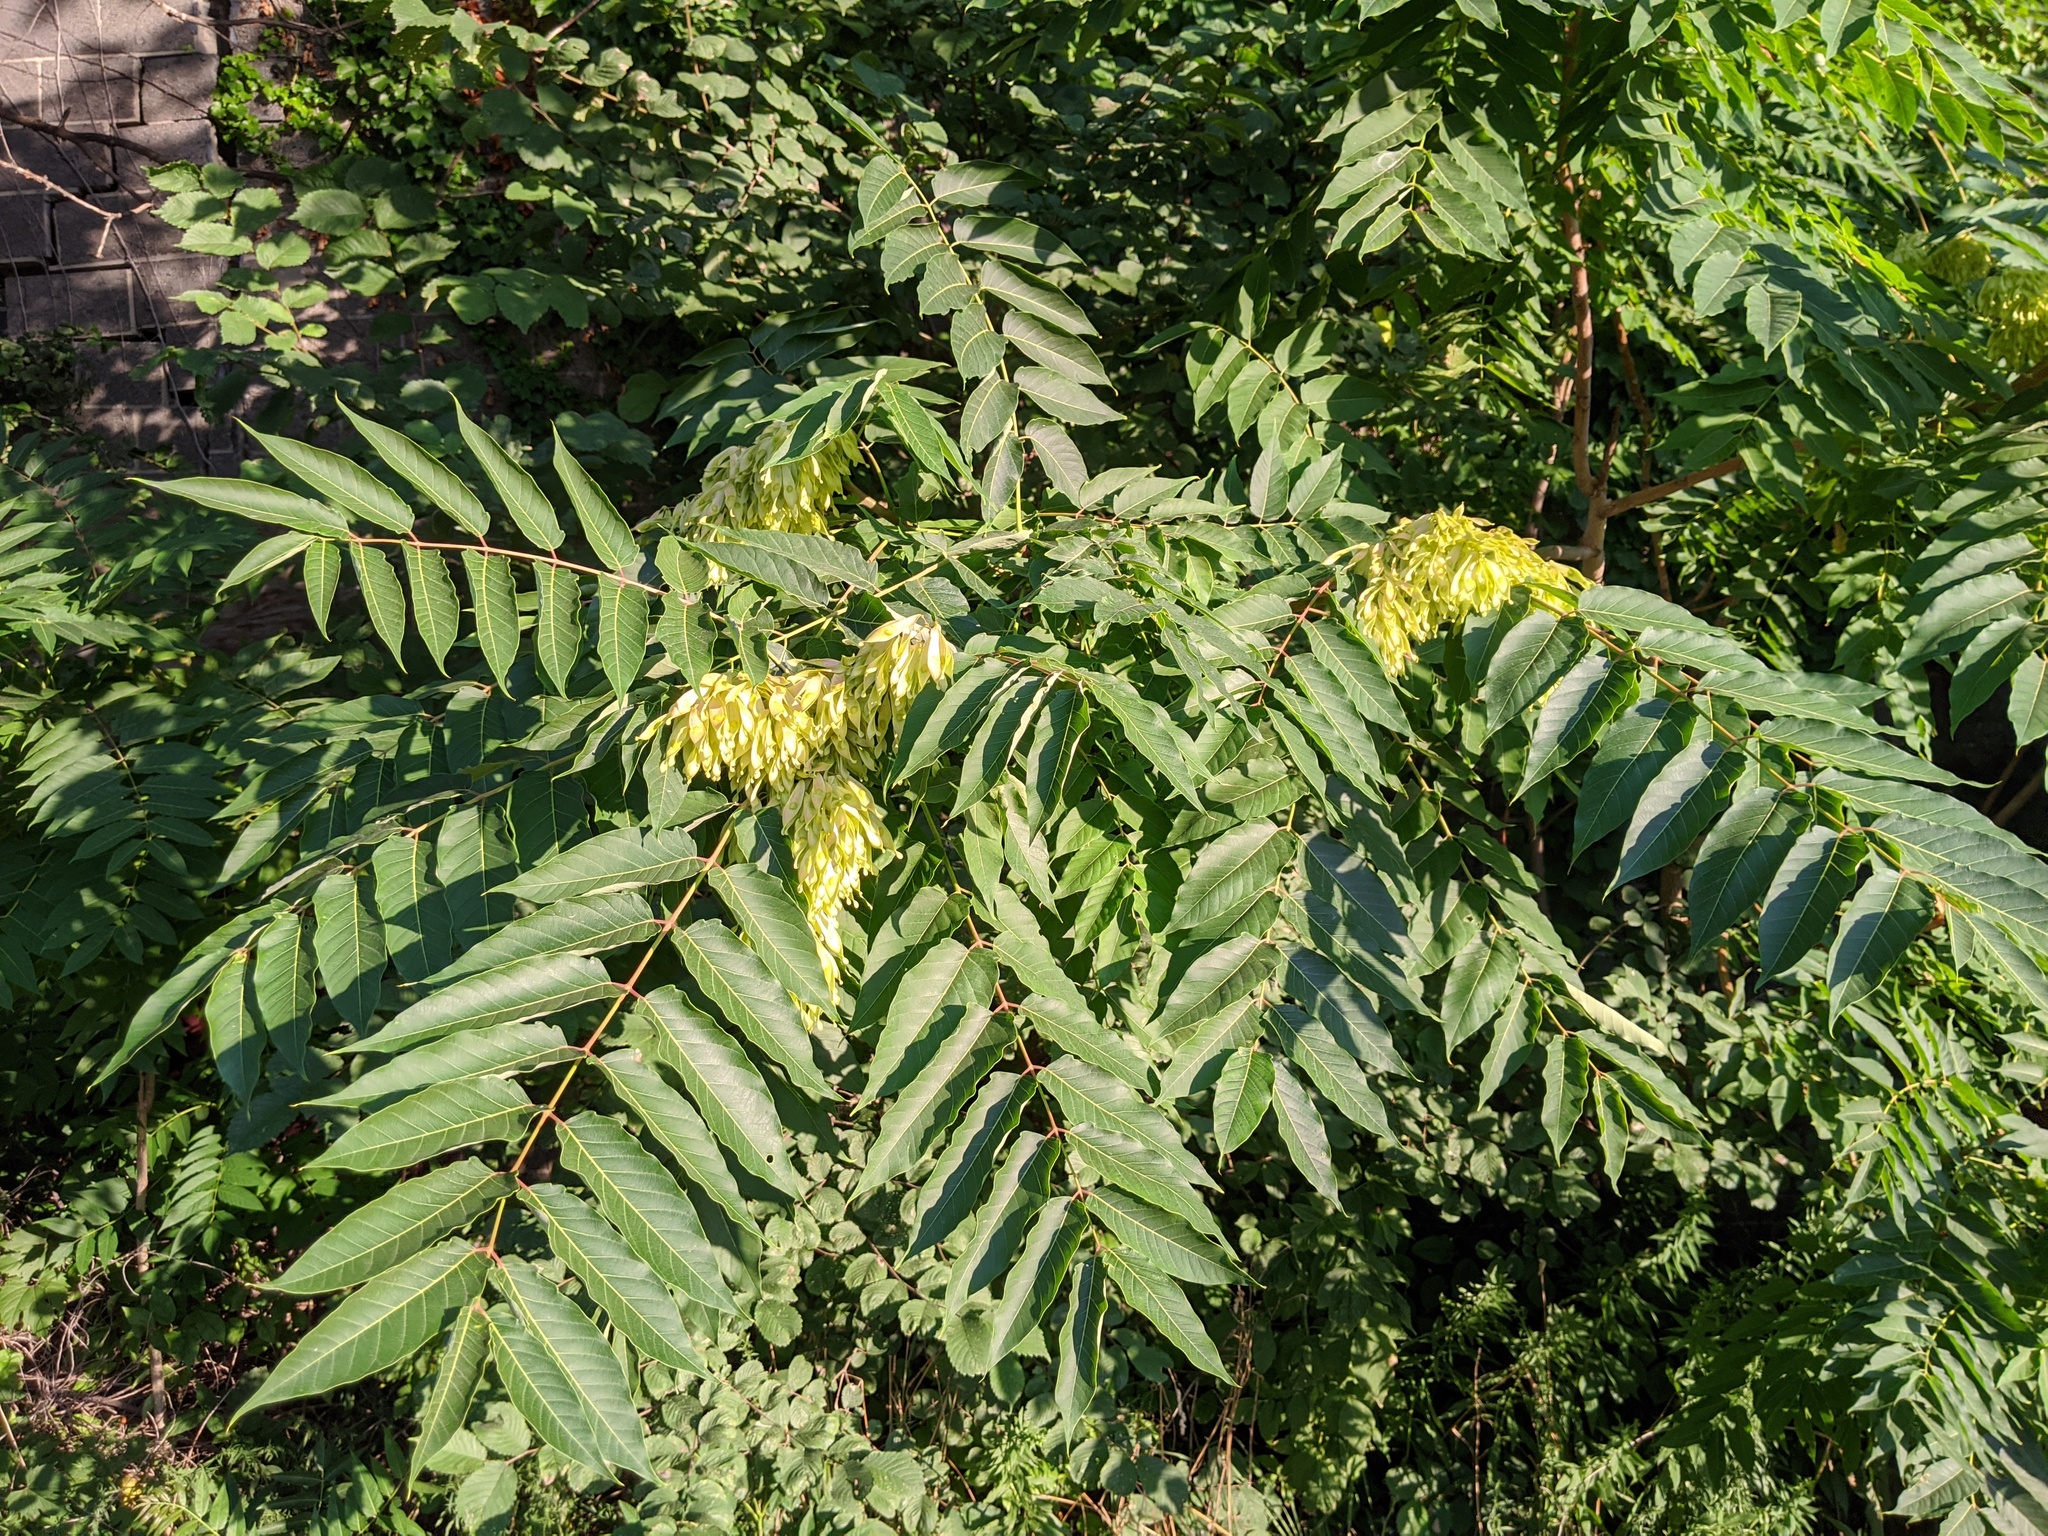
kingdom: Plantae
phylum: Tracheophyta
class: Magnoliopsida
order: Sapindales
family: Simaroubaceae
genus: Ailanthus
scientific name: Ailanthus altissima
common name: Tree-of-heaven
